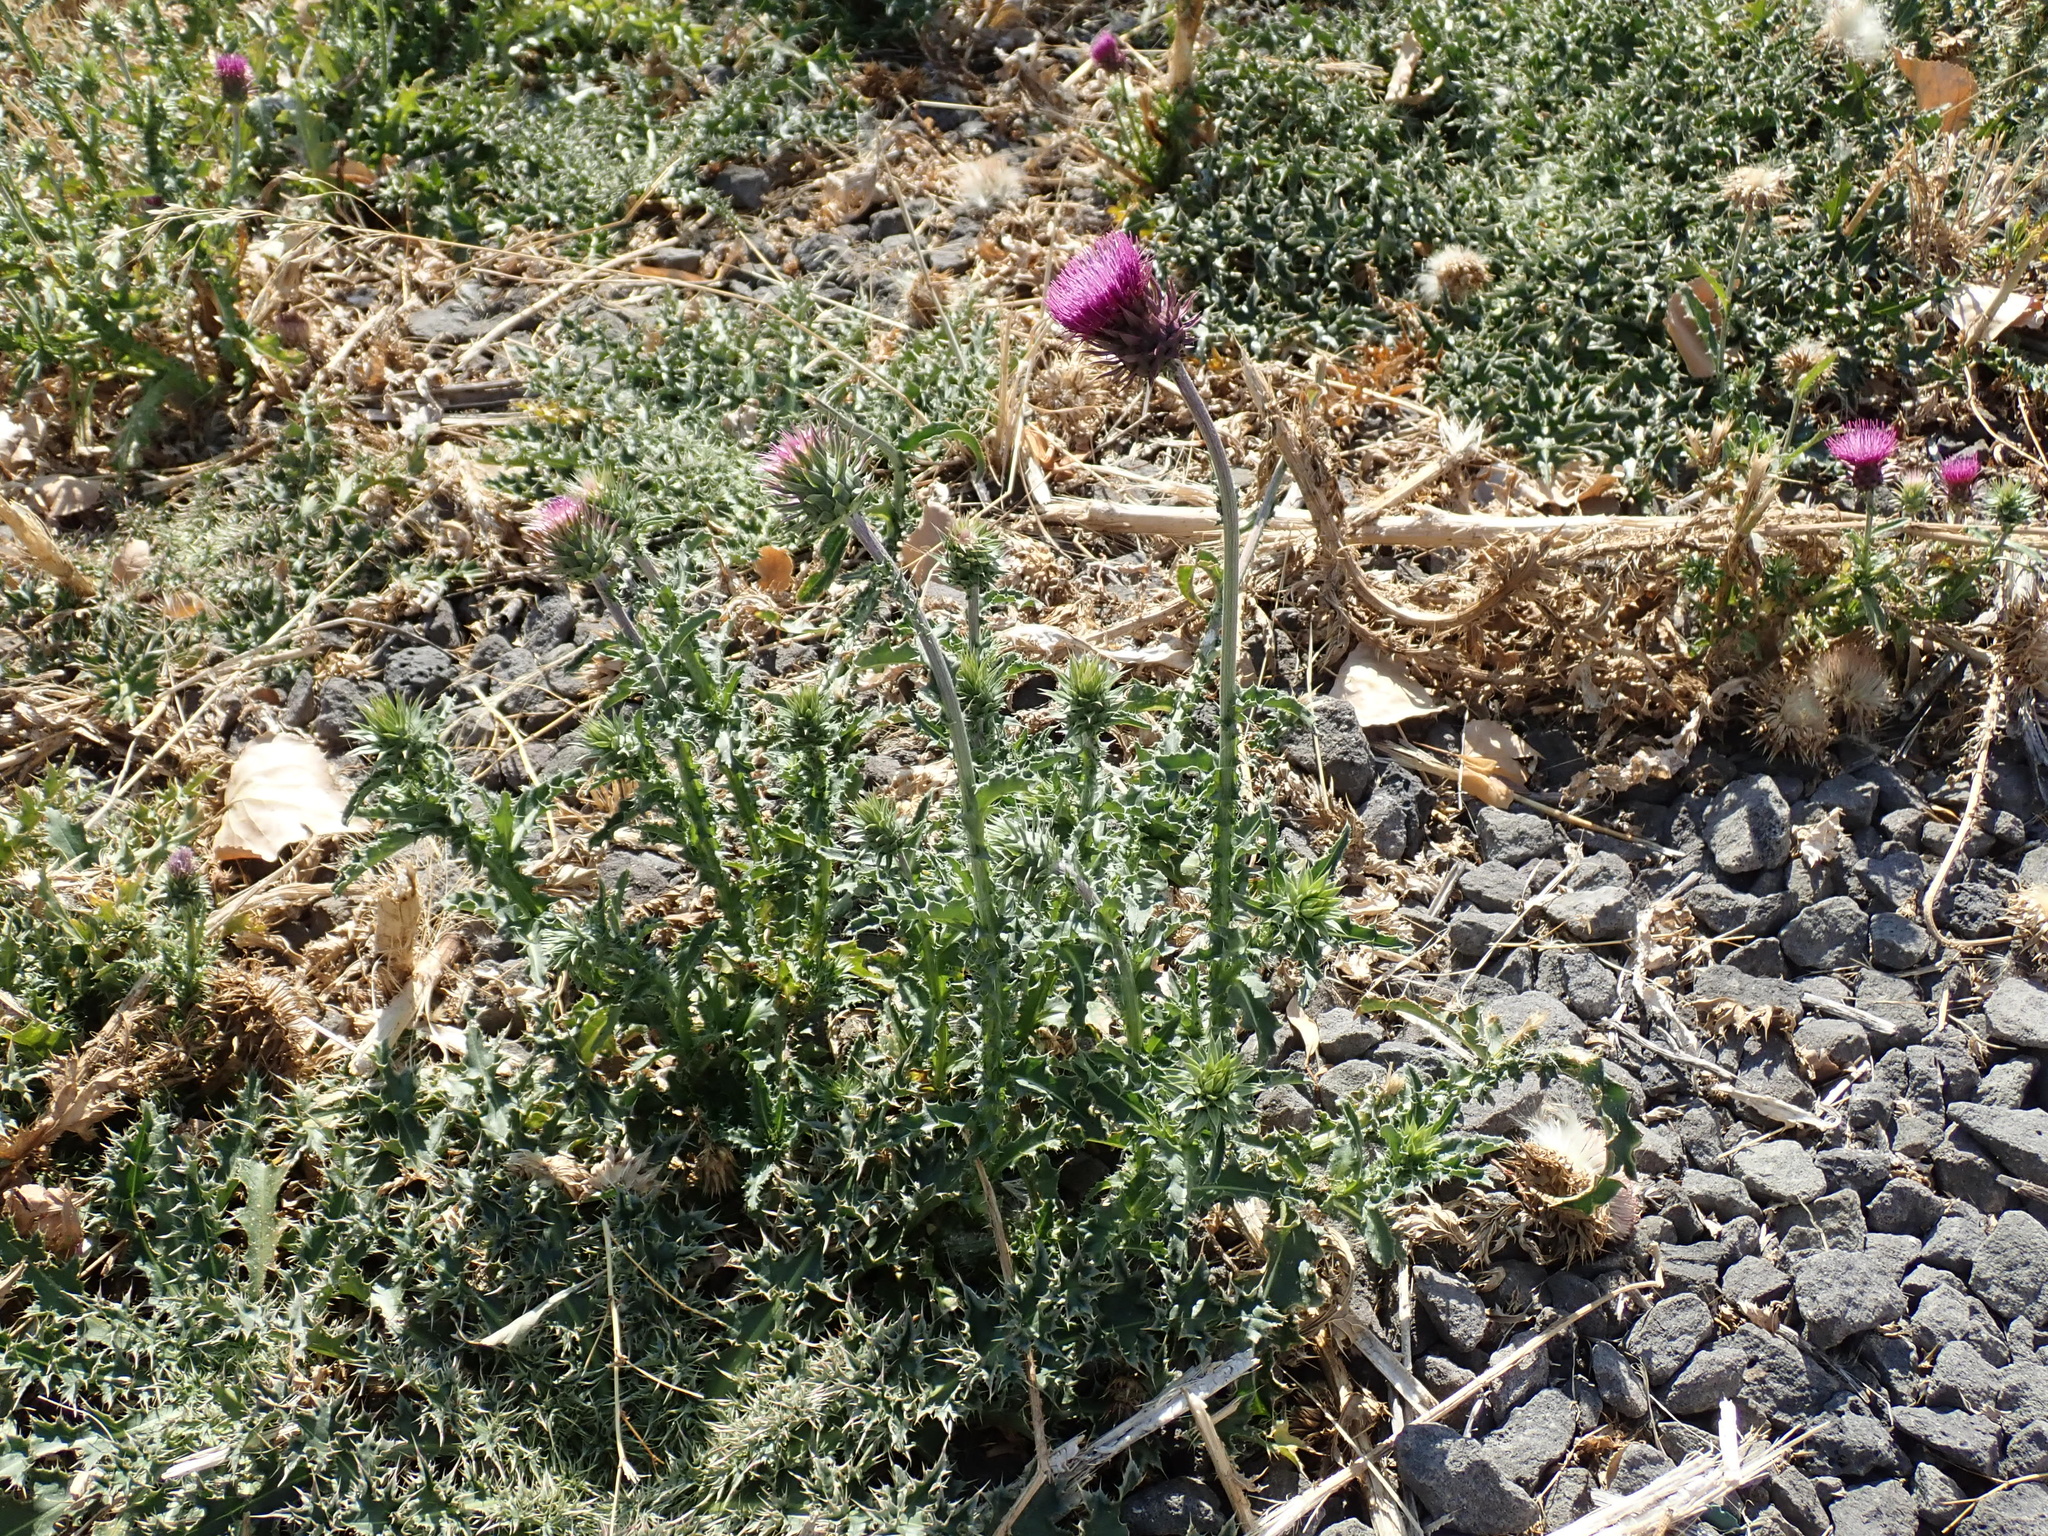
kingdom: Plantae
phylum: Tracheophyta
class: Magnoliopsida
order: Asterales
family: Asteraceae
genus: Carduus
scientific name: Carduus nutans
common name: Musk thistle
